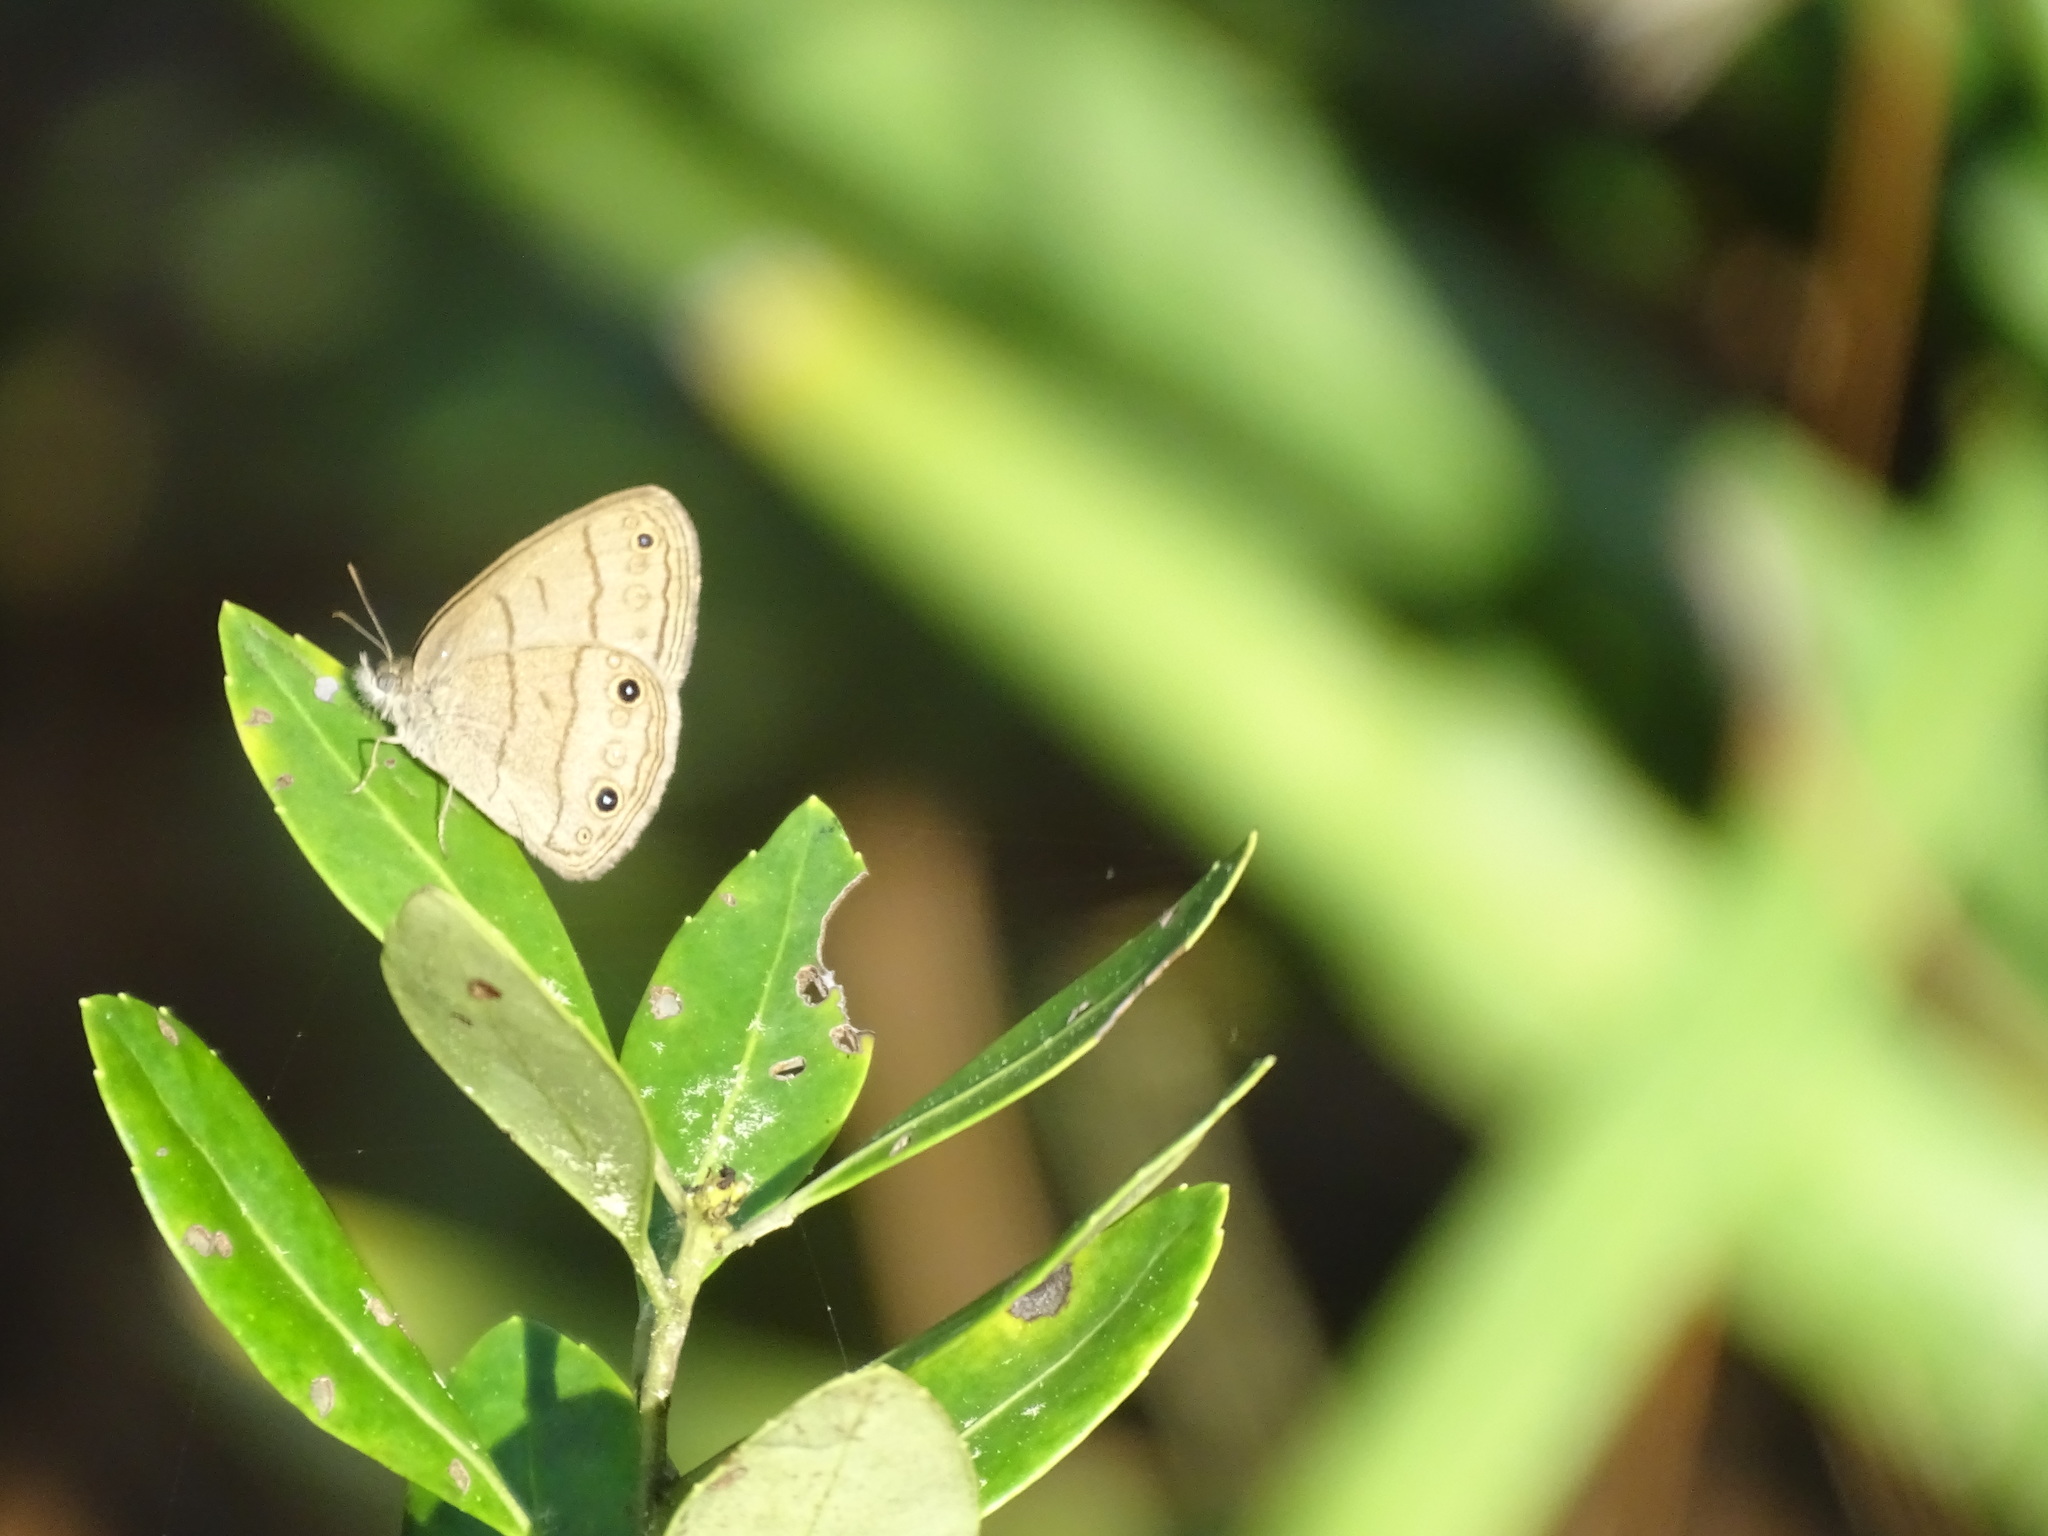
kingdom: Animalia
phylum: Arthropoda
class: Insecta
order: Lepidoptera
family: Nymphalidae
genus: Hermeuptychia
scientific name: Hermeuptychia hermes
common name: Hermes satyr
